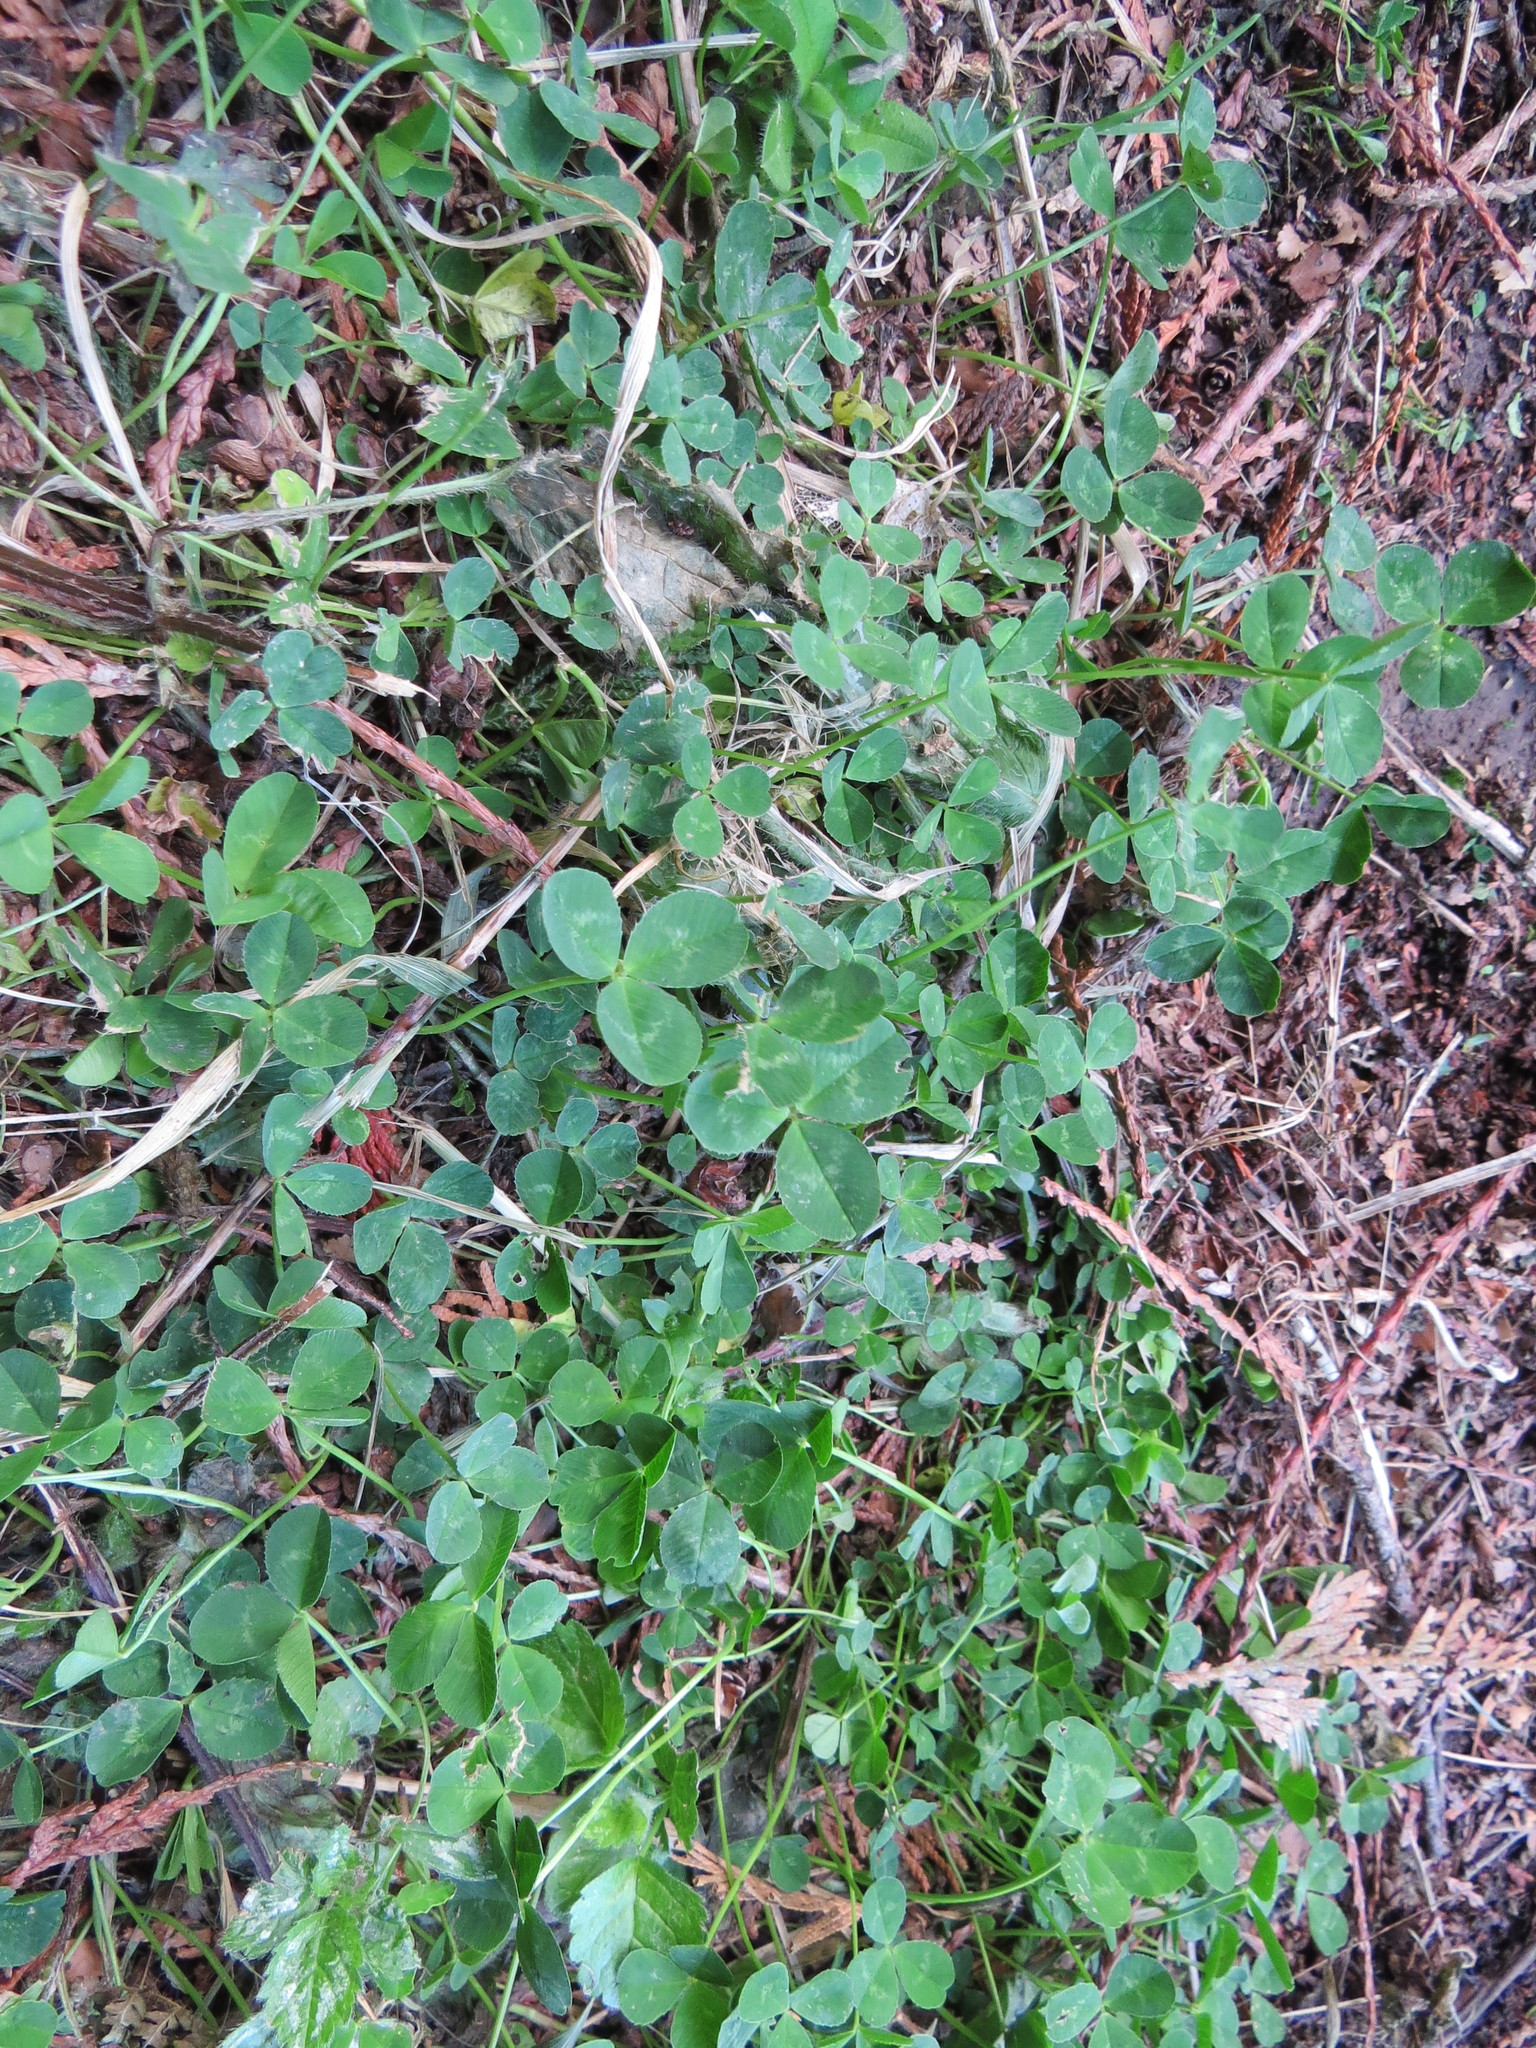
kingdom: Plantae
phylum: Tracheophyta
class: Magnoliopsida
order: Fabales
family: Fabaceae
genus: Trifolium
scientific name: Trifolium repens
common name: White clover
